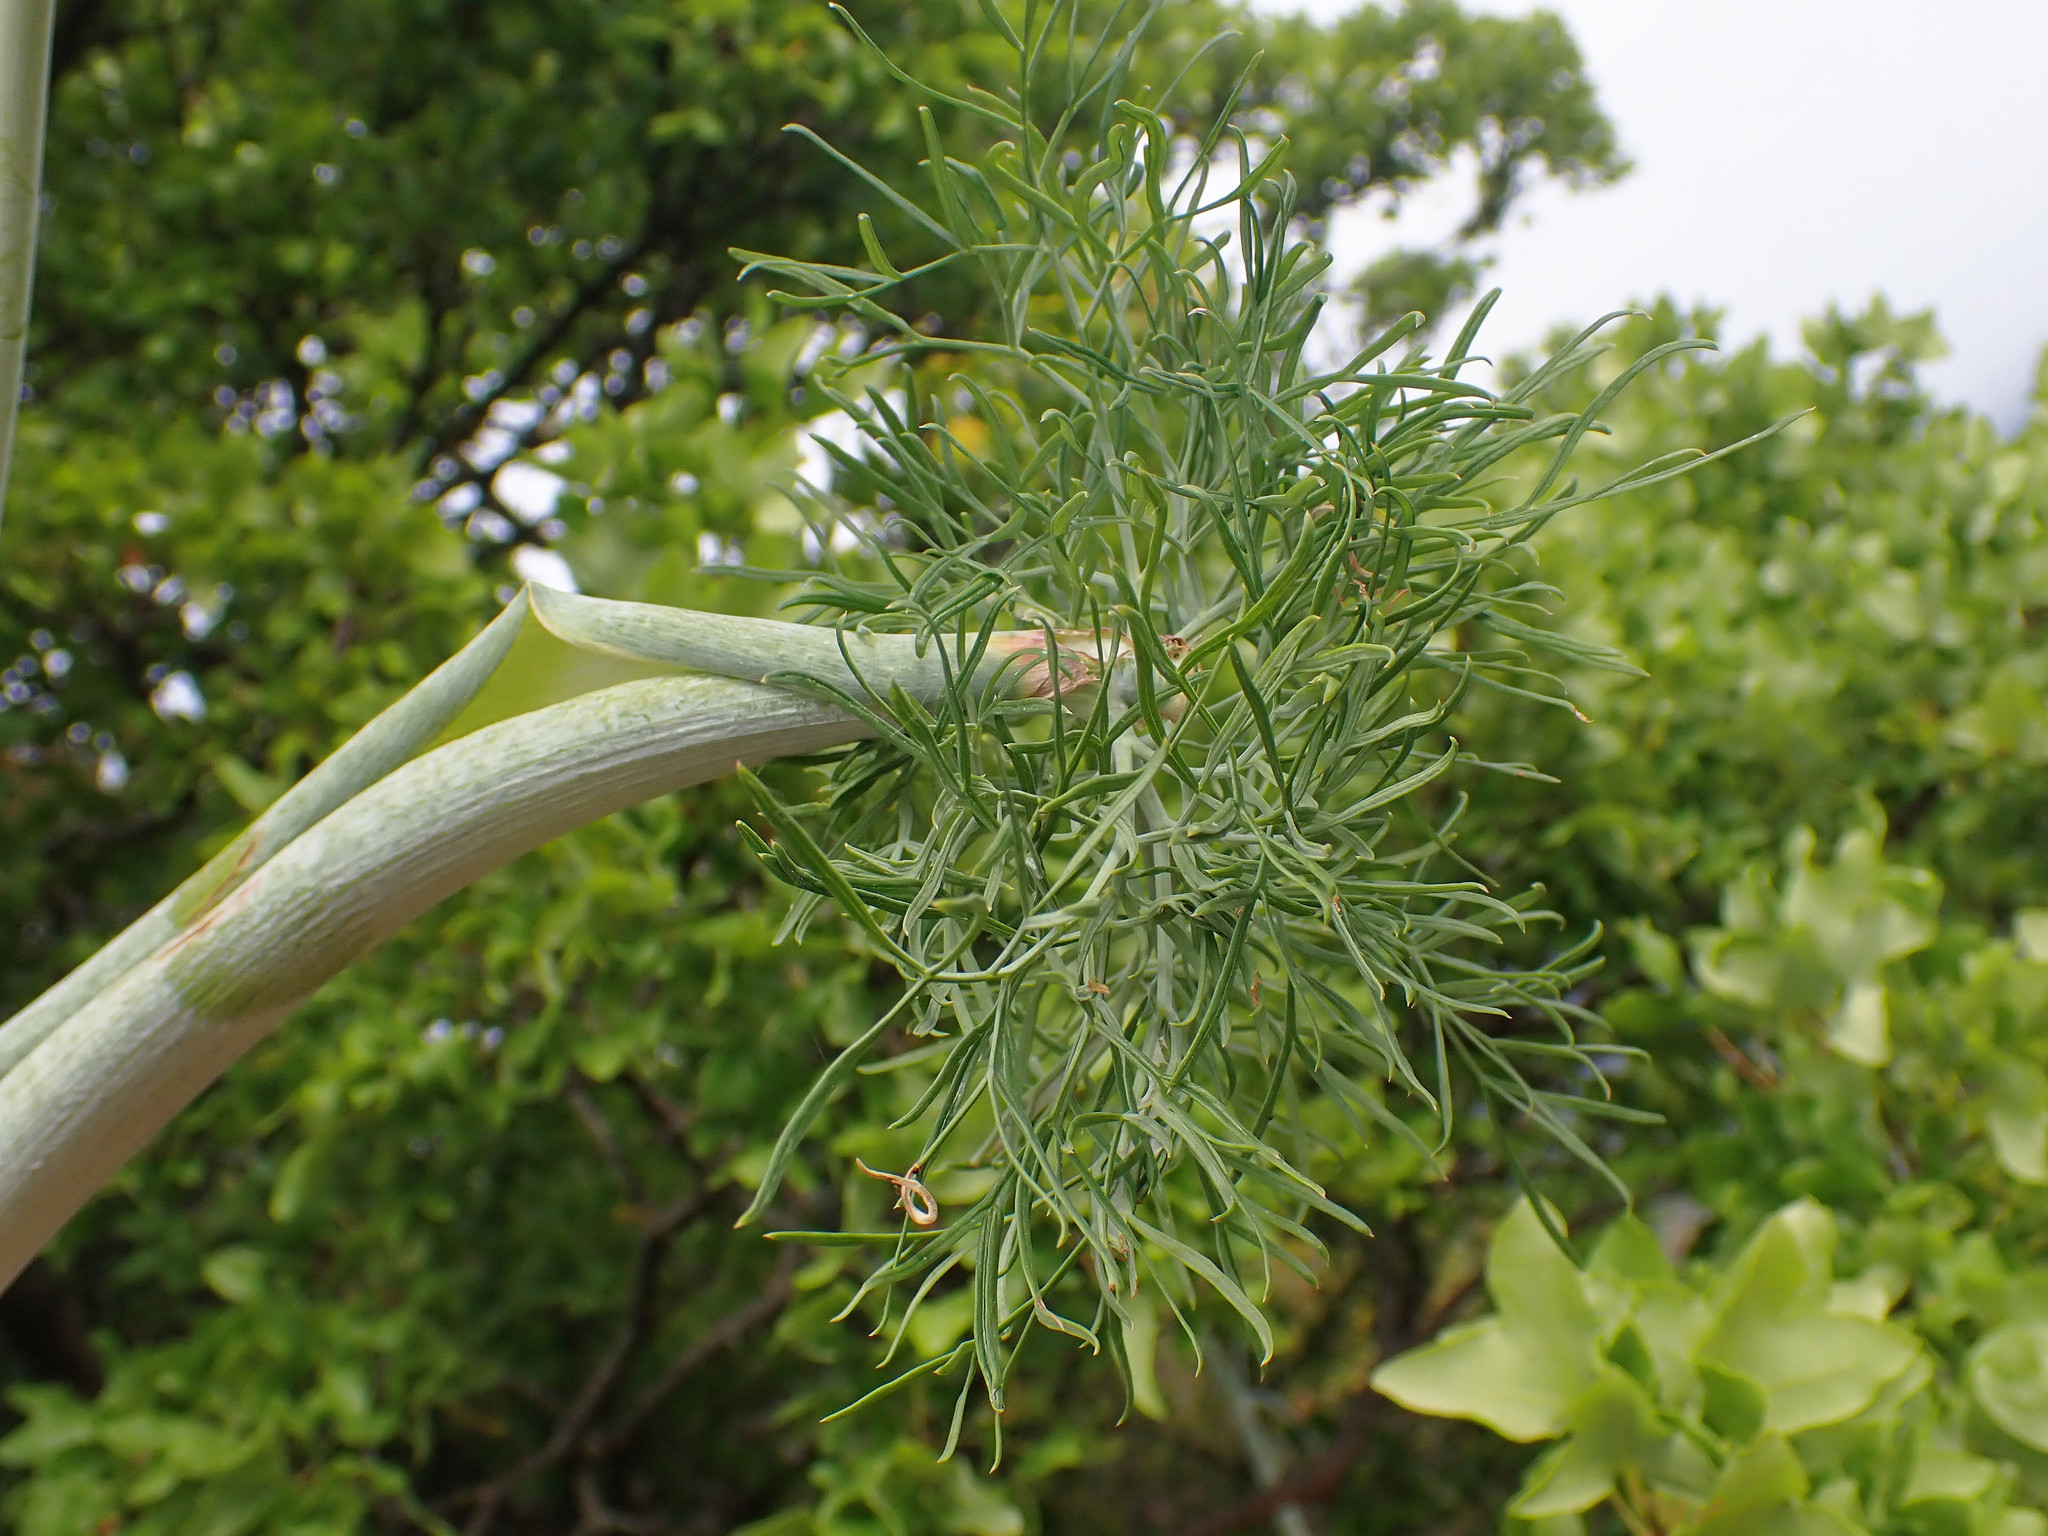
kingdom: Plantae
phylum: Tracheophyta
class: Magnoliopsida
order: Apiales
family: Apiaceae
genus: Ferula
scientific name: Ferula glauca
